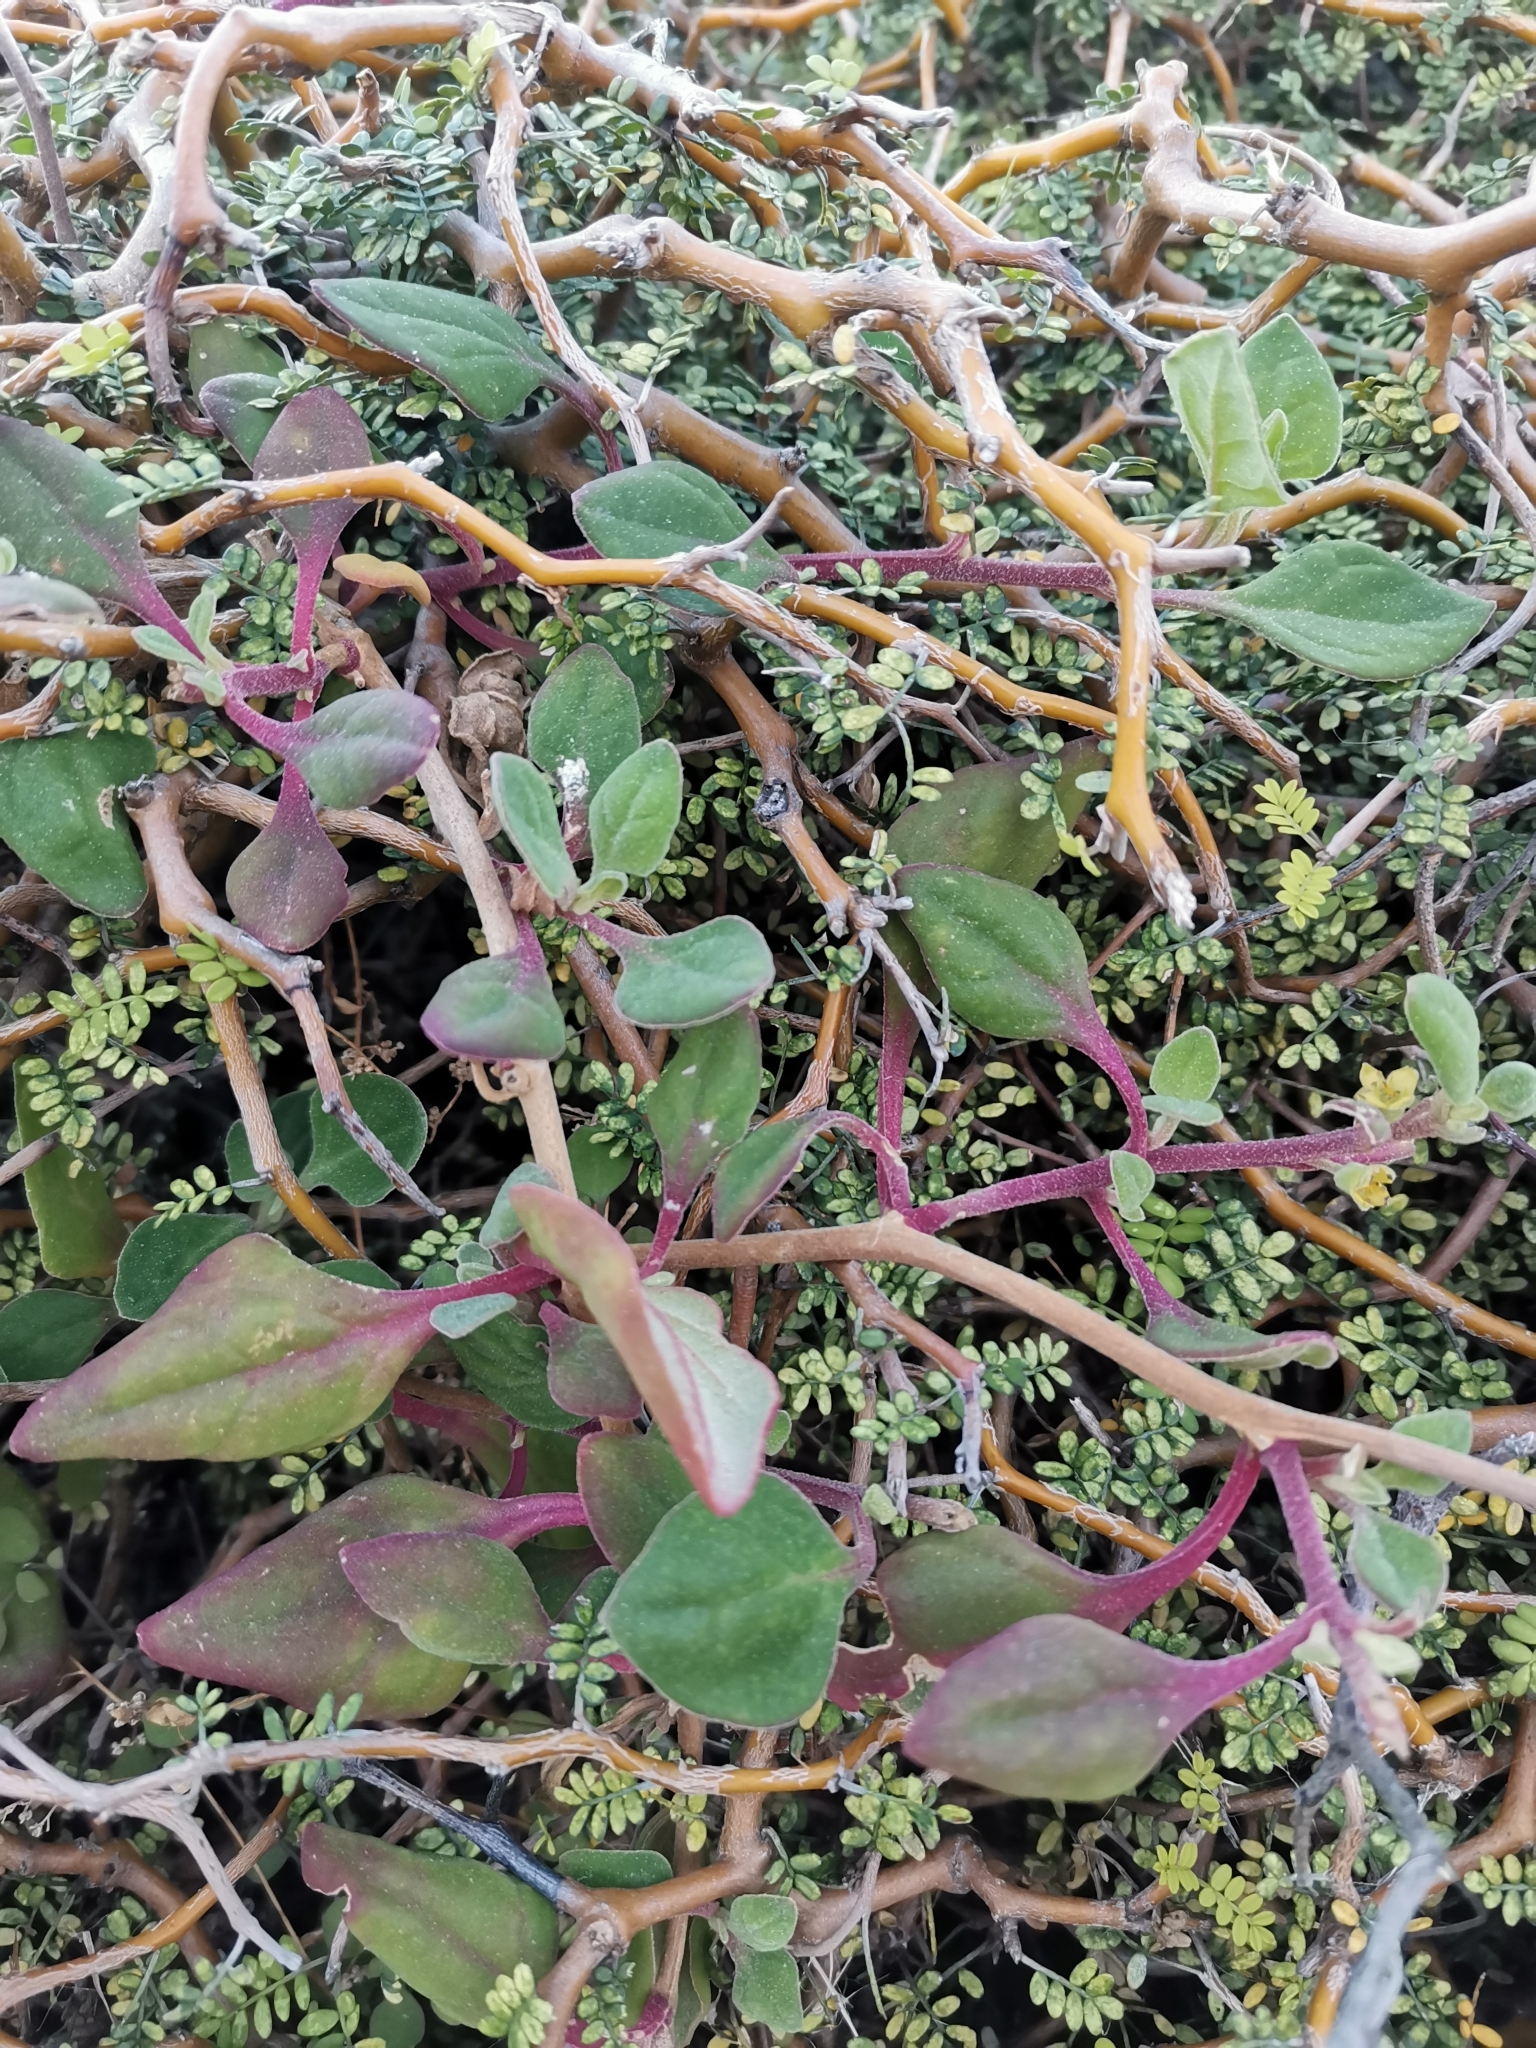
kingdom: Plantae
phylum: Tracheophyta
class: Magnoliopsida
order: Caryophyllales
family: Aizoaceae
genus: Tetragonia
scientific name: Tetragonia implexicoma
